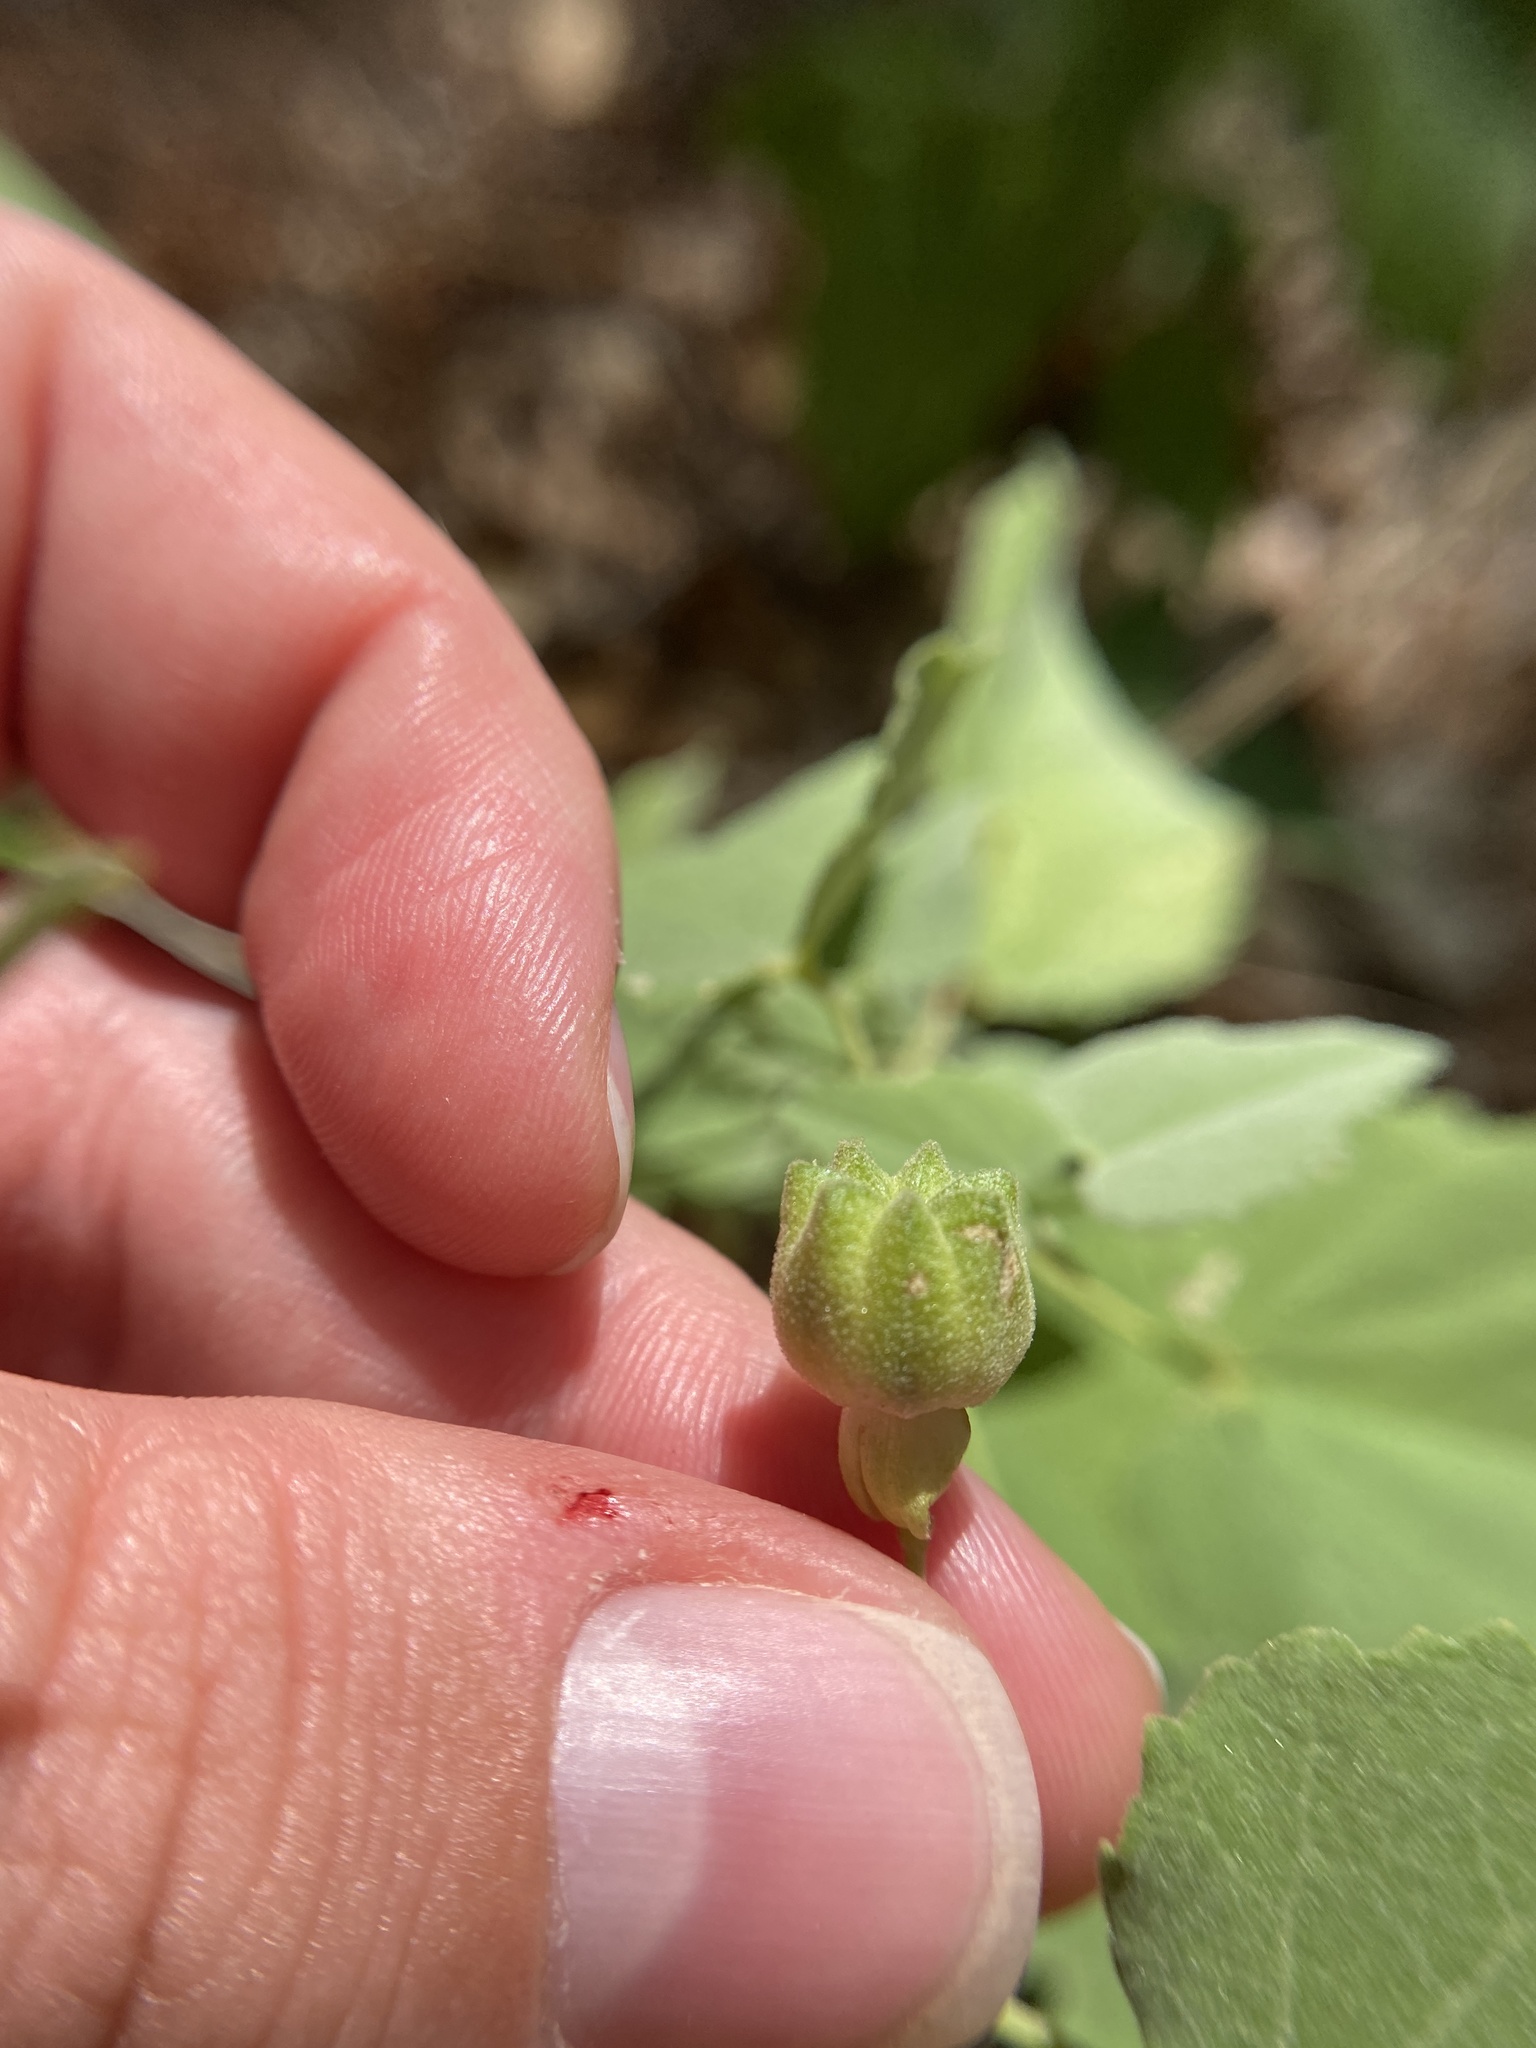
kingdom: Plantae
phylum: Tracheophyta
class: Magnoliopsida
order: Malvales
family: Malvaceae
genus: Abutilon
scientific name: Abutilon fruticosum
